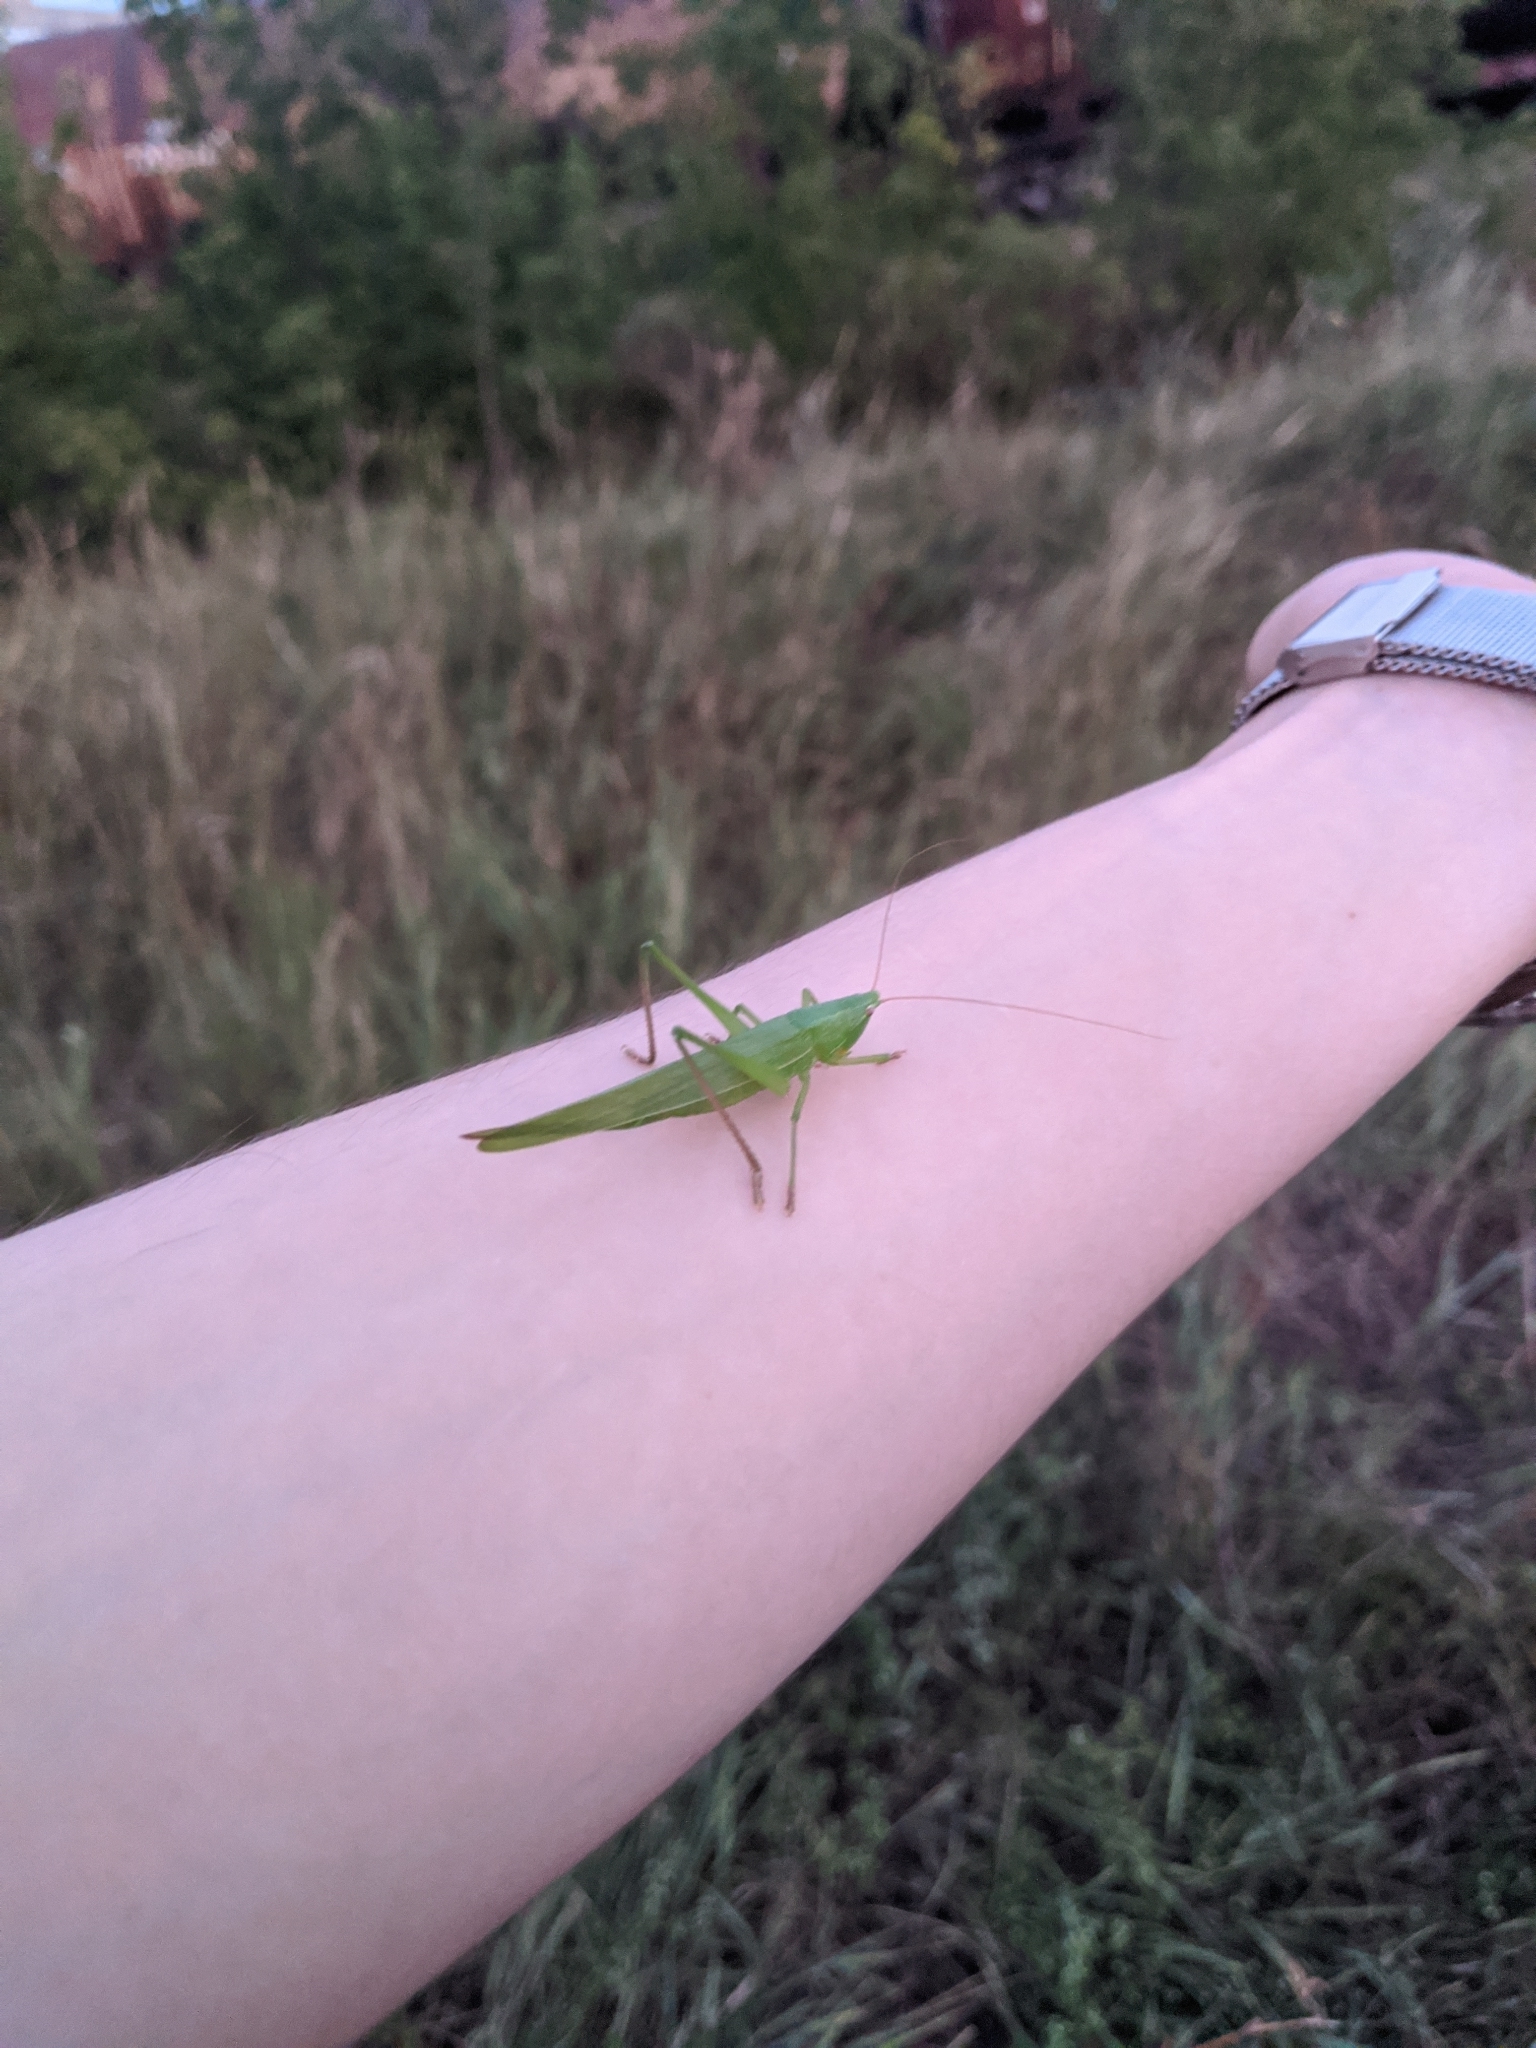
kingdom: Animalia
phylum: Arthropoda
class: Insecta
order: Orthoptera
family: Tettigoniidae
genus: Ruspolia
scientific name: Ruspolia nitidula
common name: Large conehead
